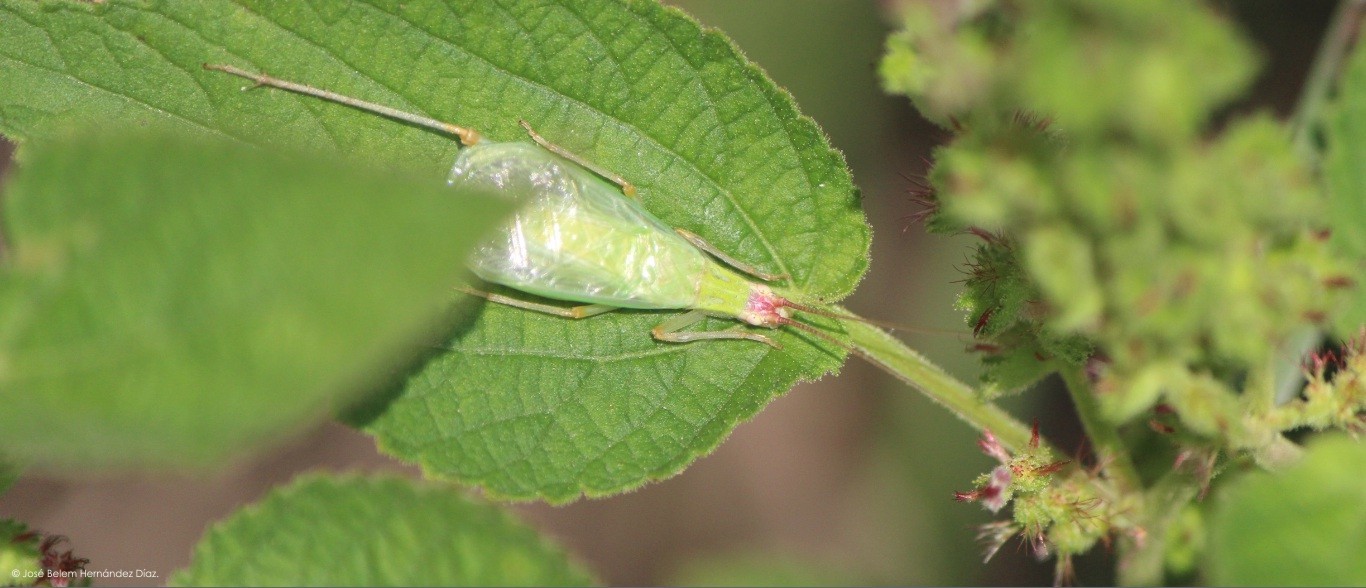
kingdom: Animalia
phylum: Arthropoda
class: Insecta
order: Orthoptera
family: Gryllidae
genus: Oecanthus
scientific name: Oecanthus californicus
